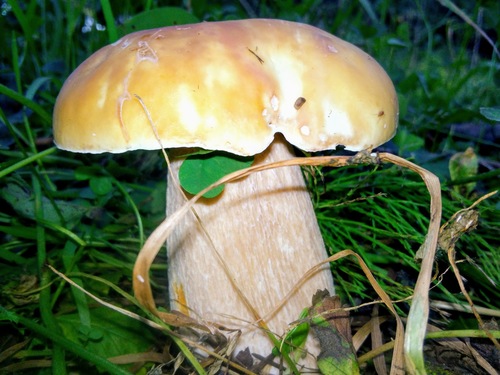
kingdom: Fungi
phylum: Basidiomycota
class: Agaricomycetes
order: Boletales
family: Boletaceae
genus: Boletus
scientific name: Boletus edulis
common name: Cep
